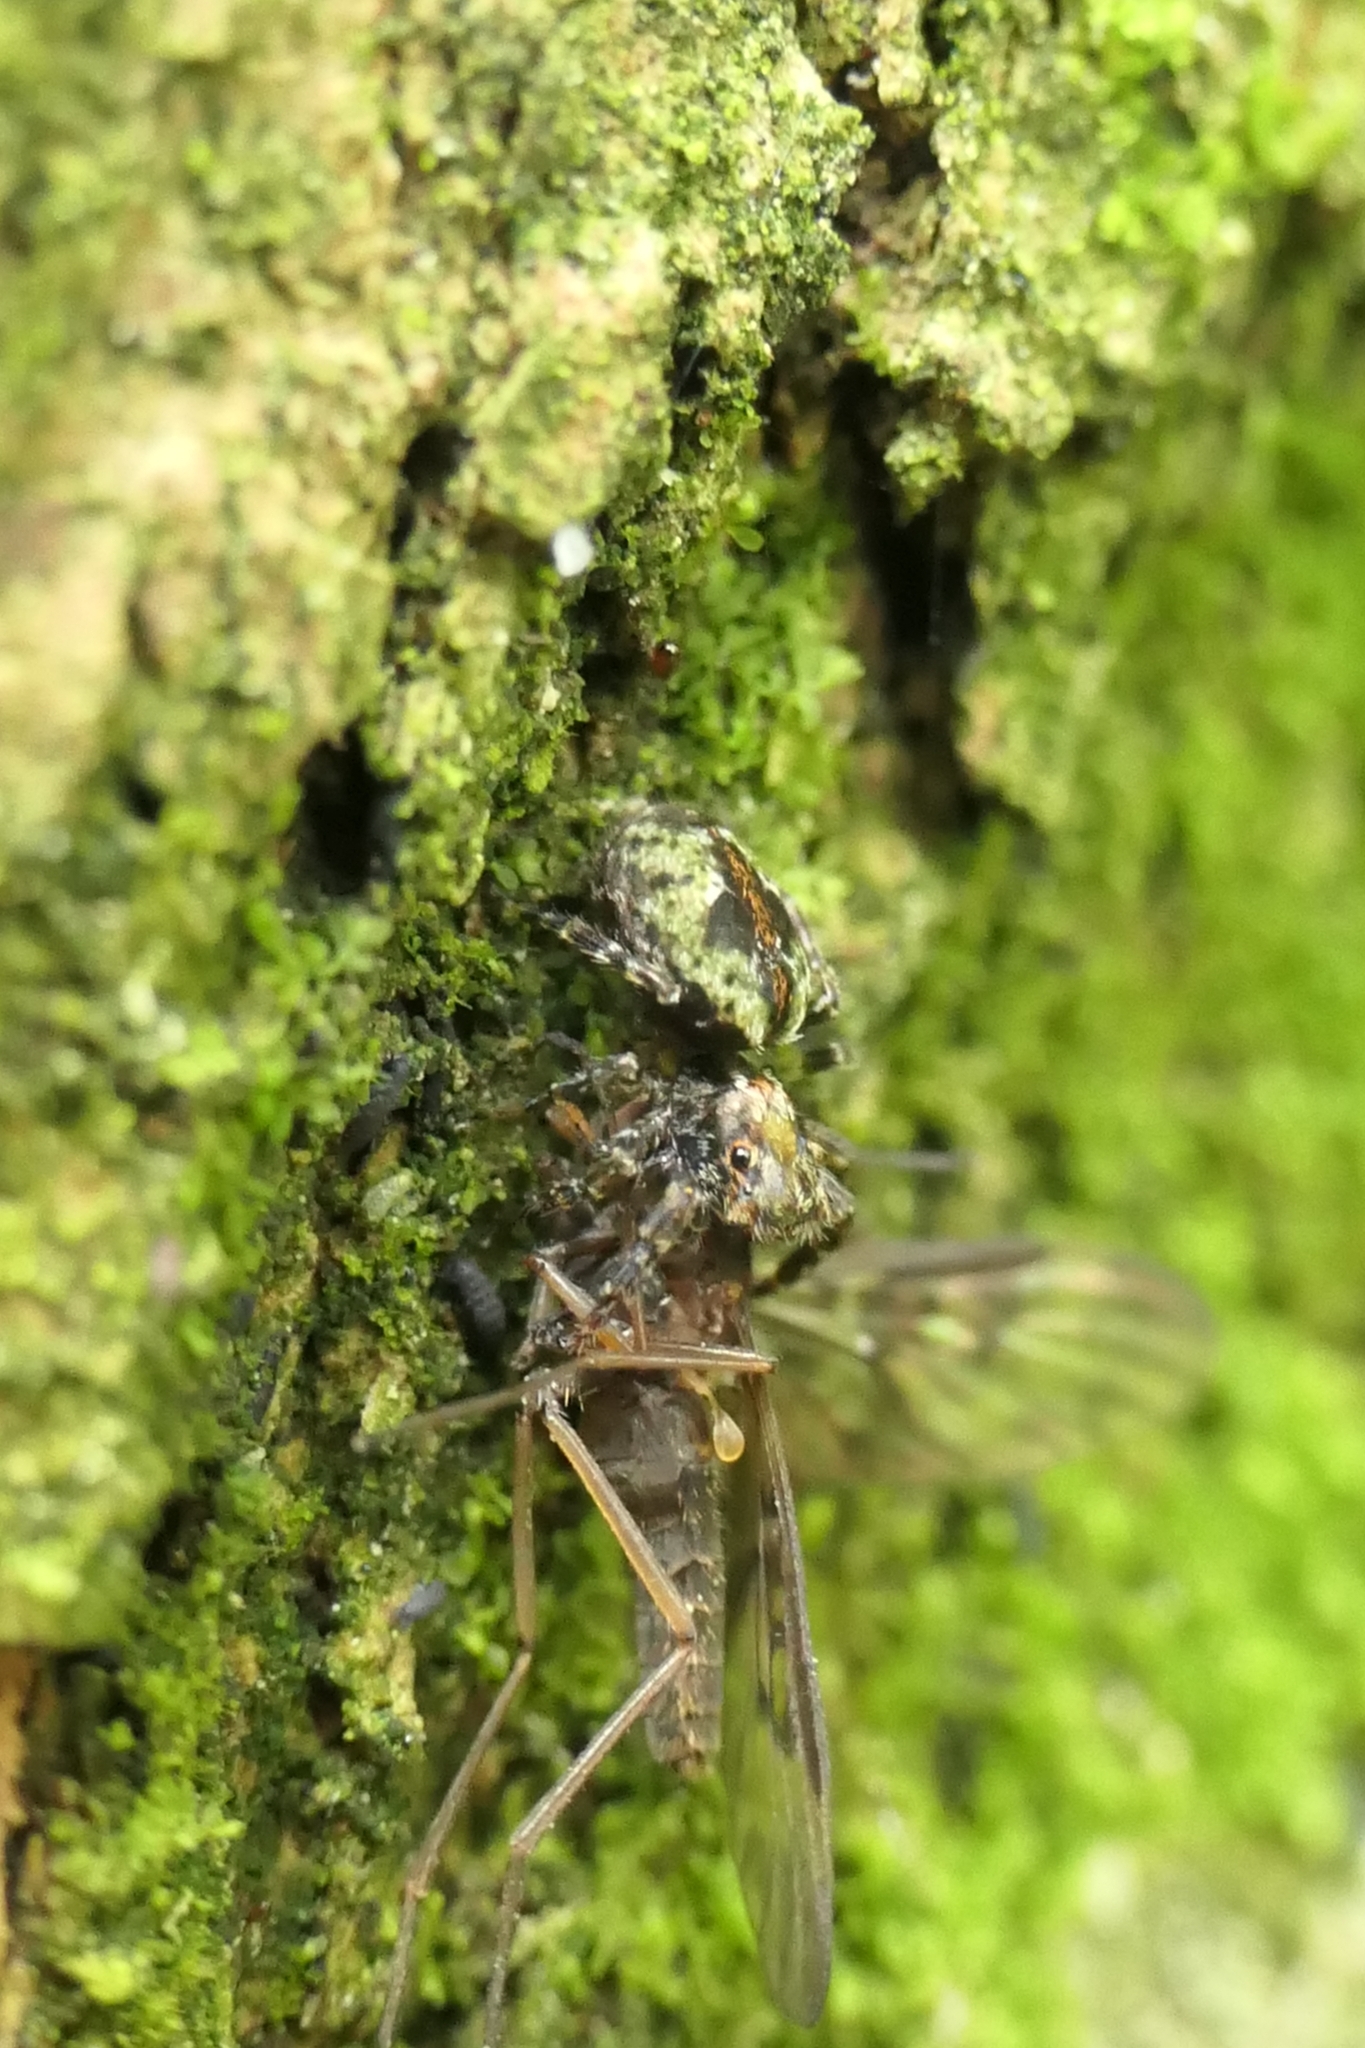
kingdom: Animalia
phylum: Arthropoda
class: Arachnida
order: Araneae
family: Salticidae
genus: Hinewaia
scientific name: Hinewaia embolica
